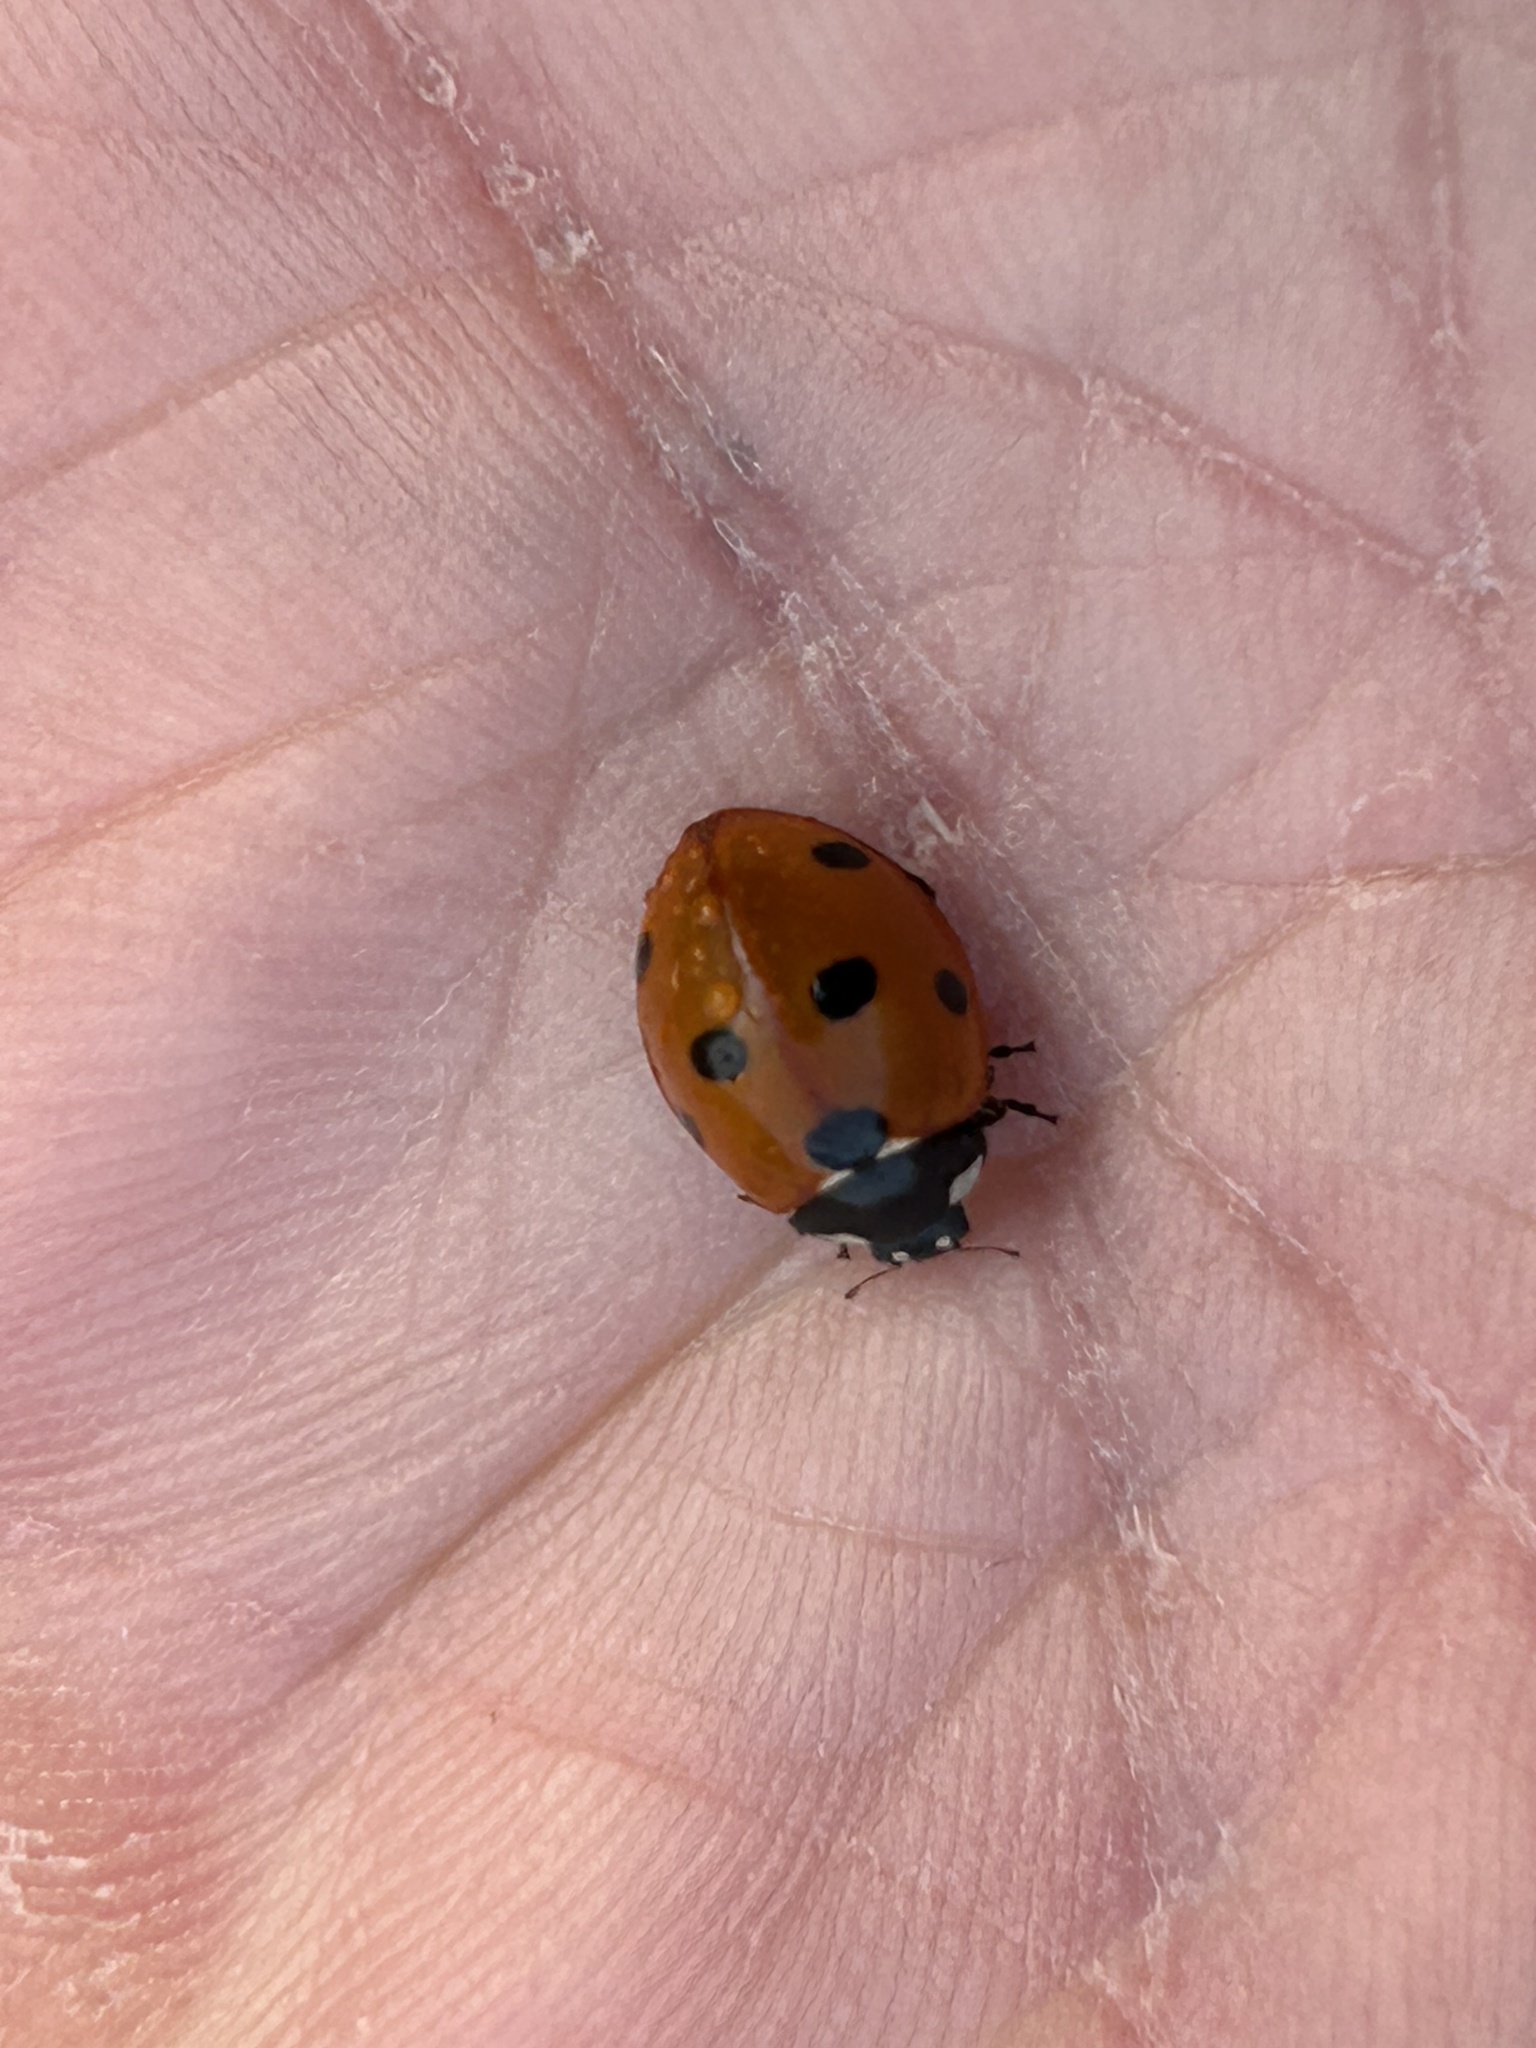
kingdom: Animalia
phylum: Arthropoda
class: Insecta
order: Coleoptera
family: Coccinellidae
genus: Coccinella
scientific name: Coccinella septempunctata
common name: Sevenspotted lady beetle
